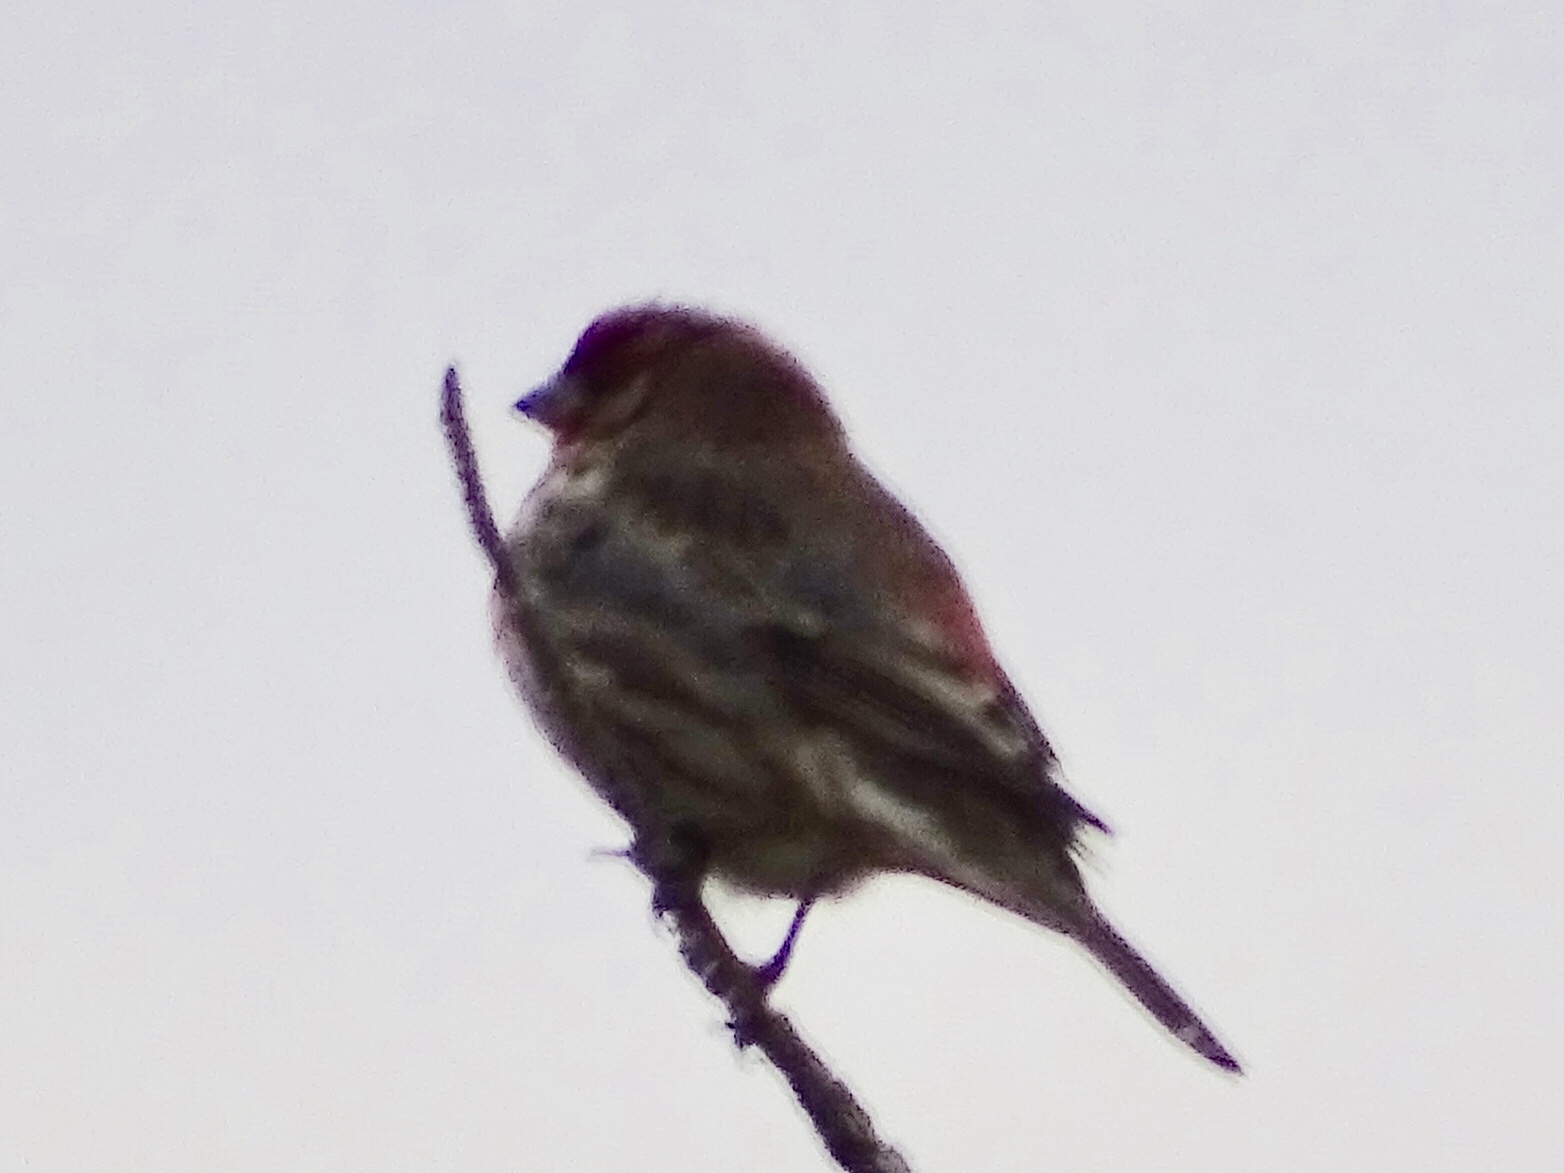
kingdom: Animalia
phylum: Chordata
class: Aves
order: Passeriformes
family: Fringillidae
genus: Haemorhous
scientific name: Haemorhous mexicanus
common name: House finch
